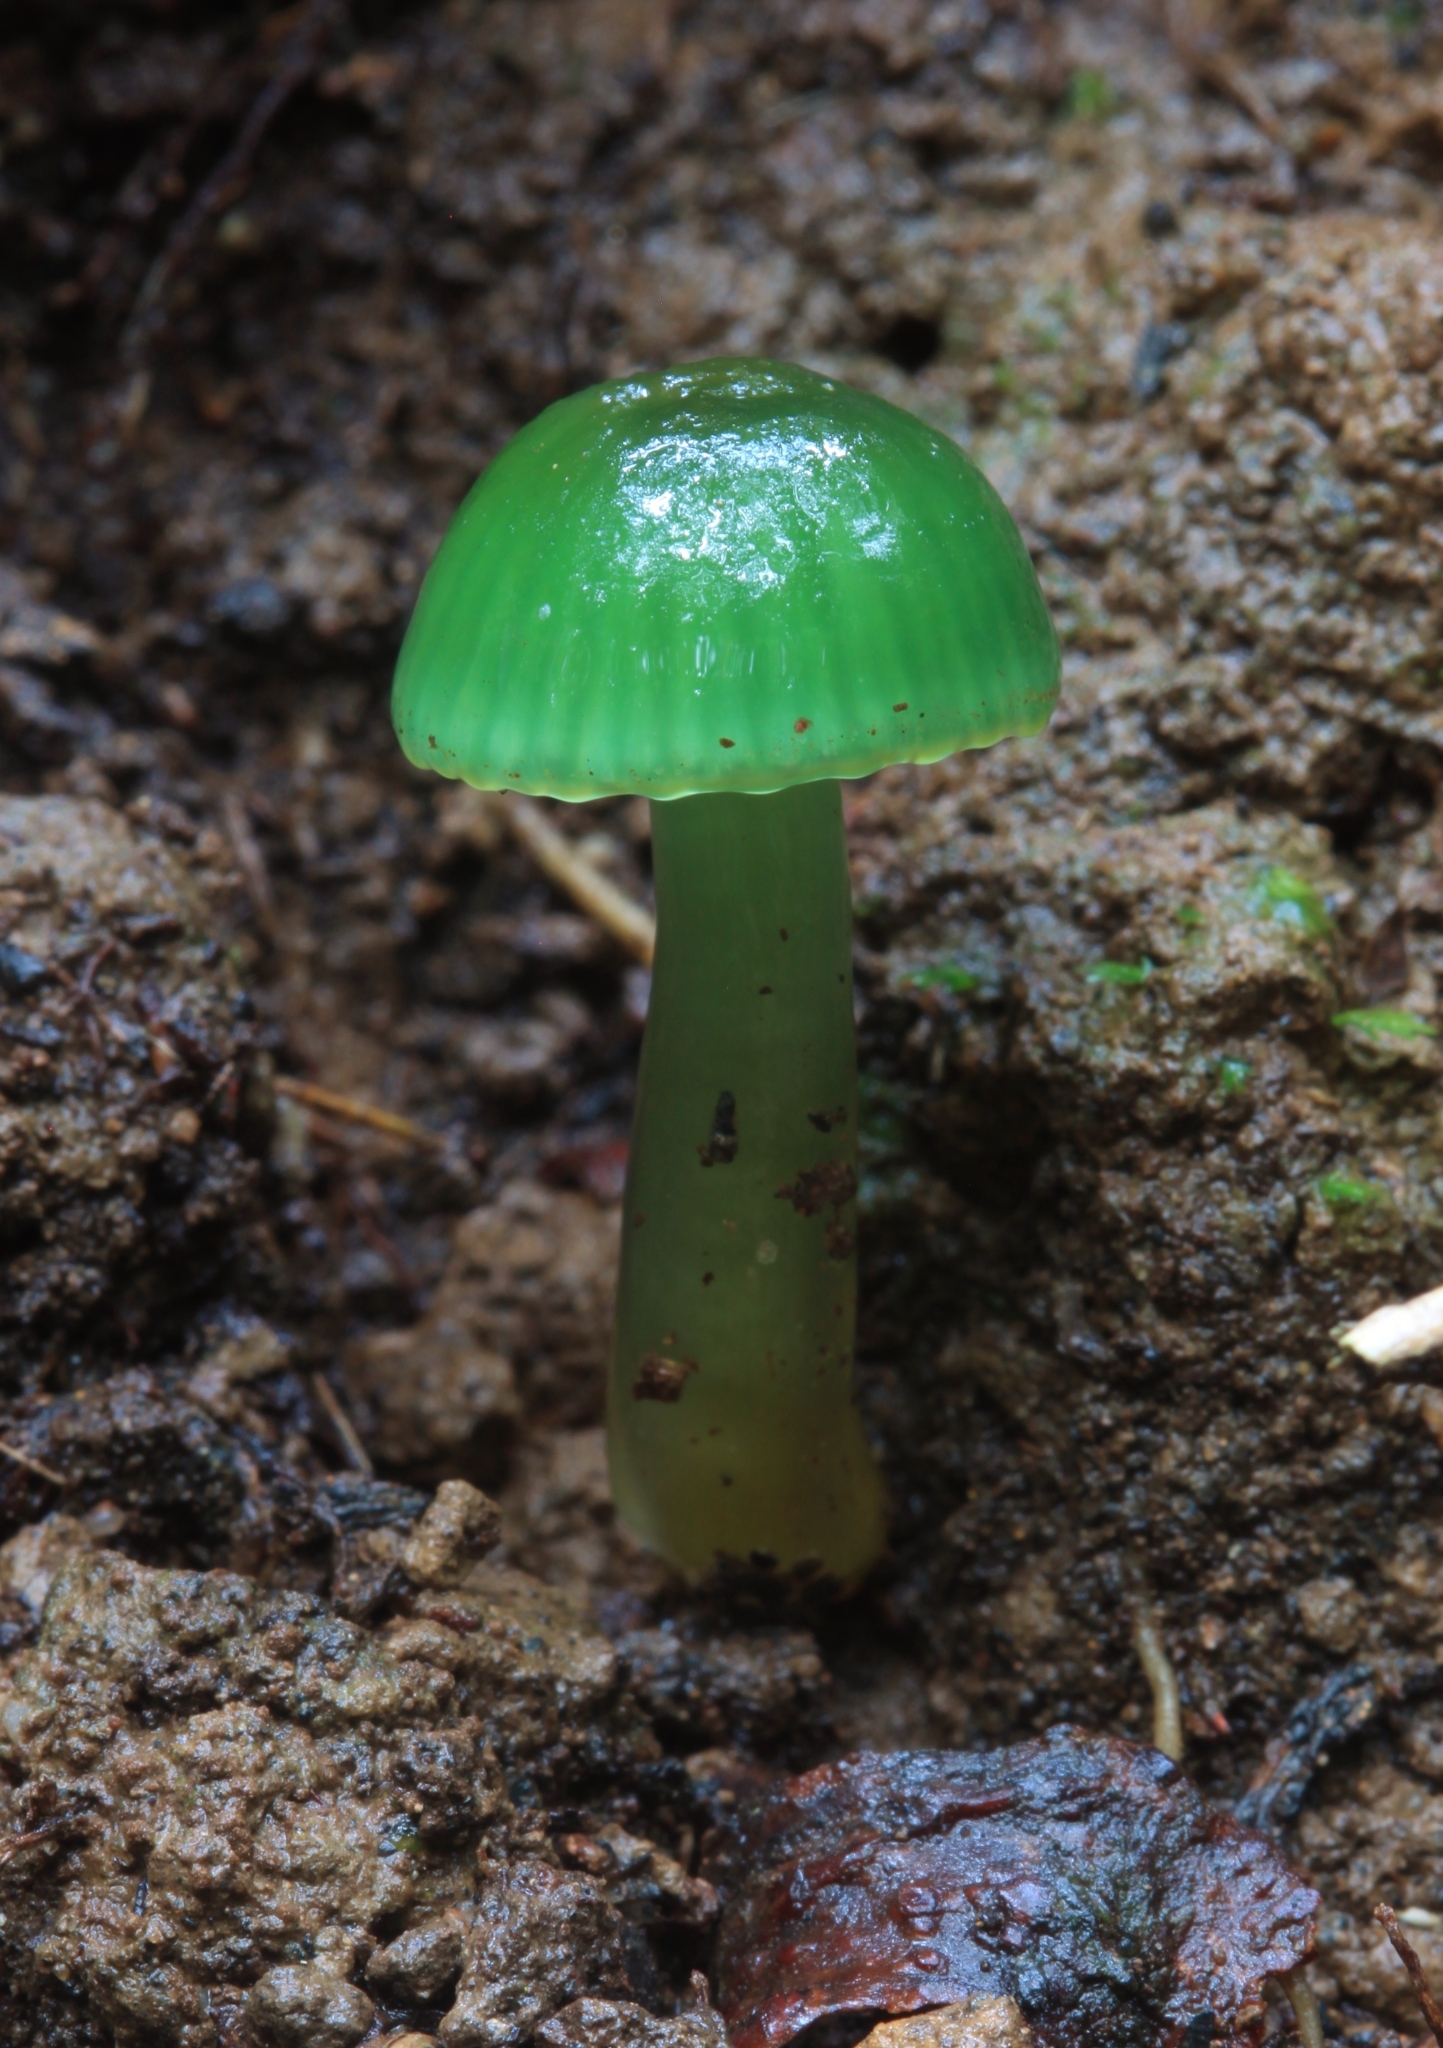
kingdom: Fungi
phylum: Basidiomycota
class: Agaricomycetes
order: Agaricales
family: Hygrophoraceae
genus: Gliophorus
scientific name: Gliophorus graminicolor
